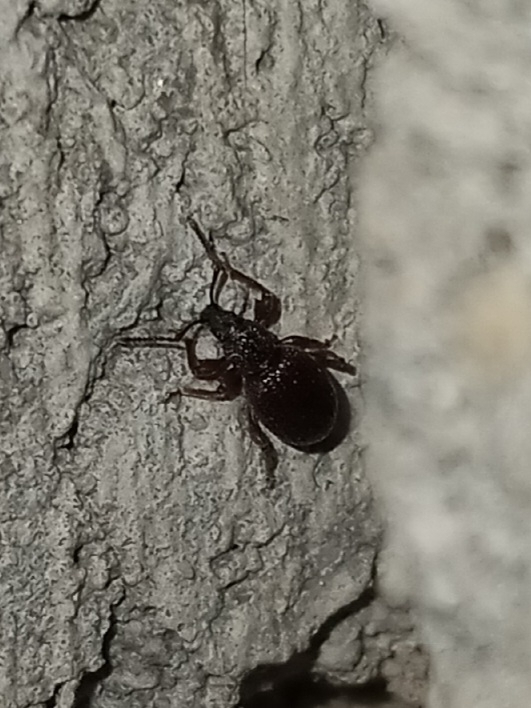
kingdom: Animalia
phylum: Arthropoda
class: Insecta
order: Coleoptera
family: Curculionidae
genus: Otiorhynchus
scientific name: Otiorhynchus ovatus
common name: Strawberry root weevil
